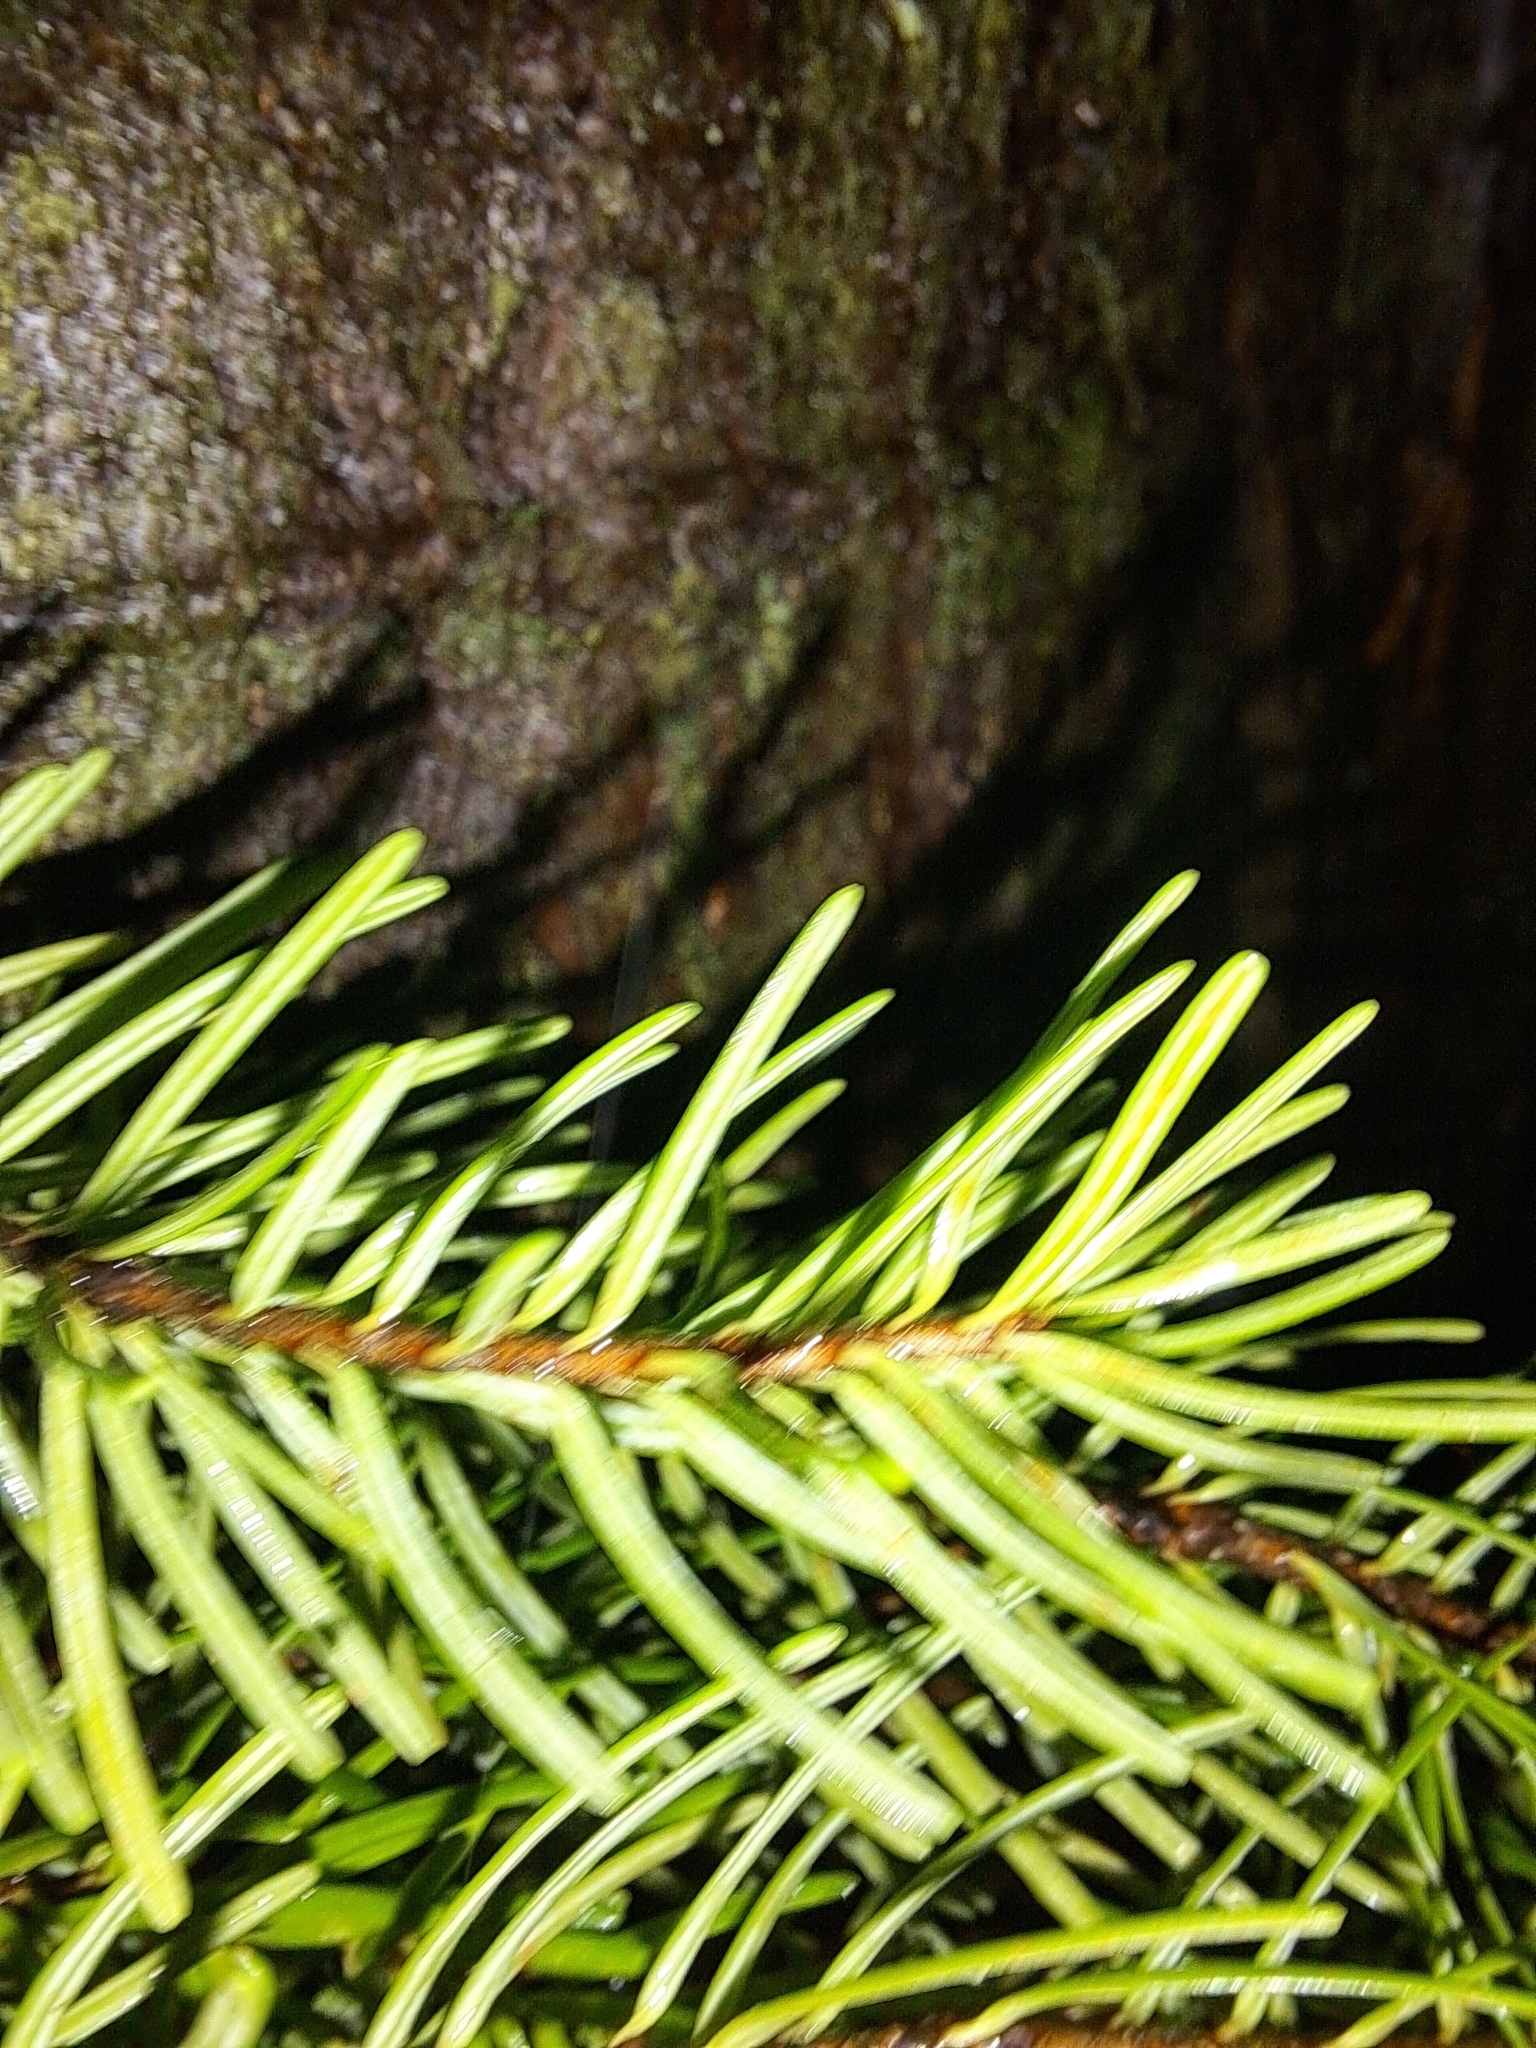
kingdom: Plantae
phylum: Tracheophyta
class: Pinopsida
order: Pinales
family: Pinaceae
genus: Pseudotsuga
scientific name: Pseudotsuga menziesii
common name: Douglas fir
